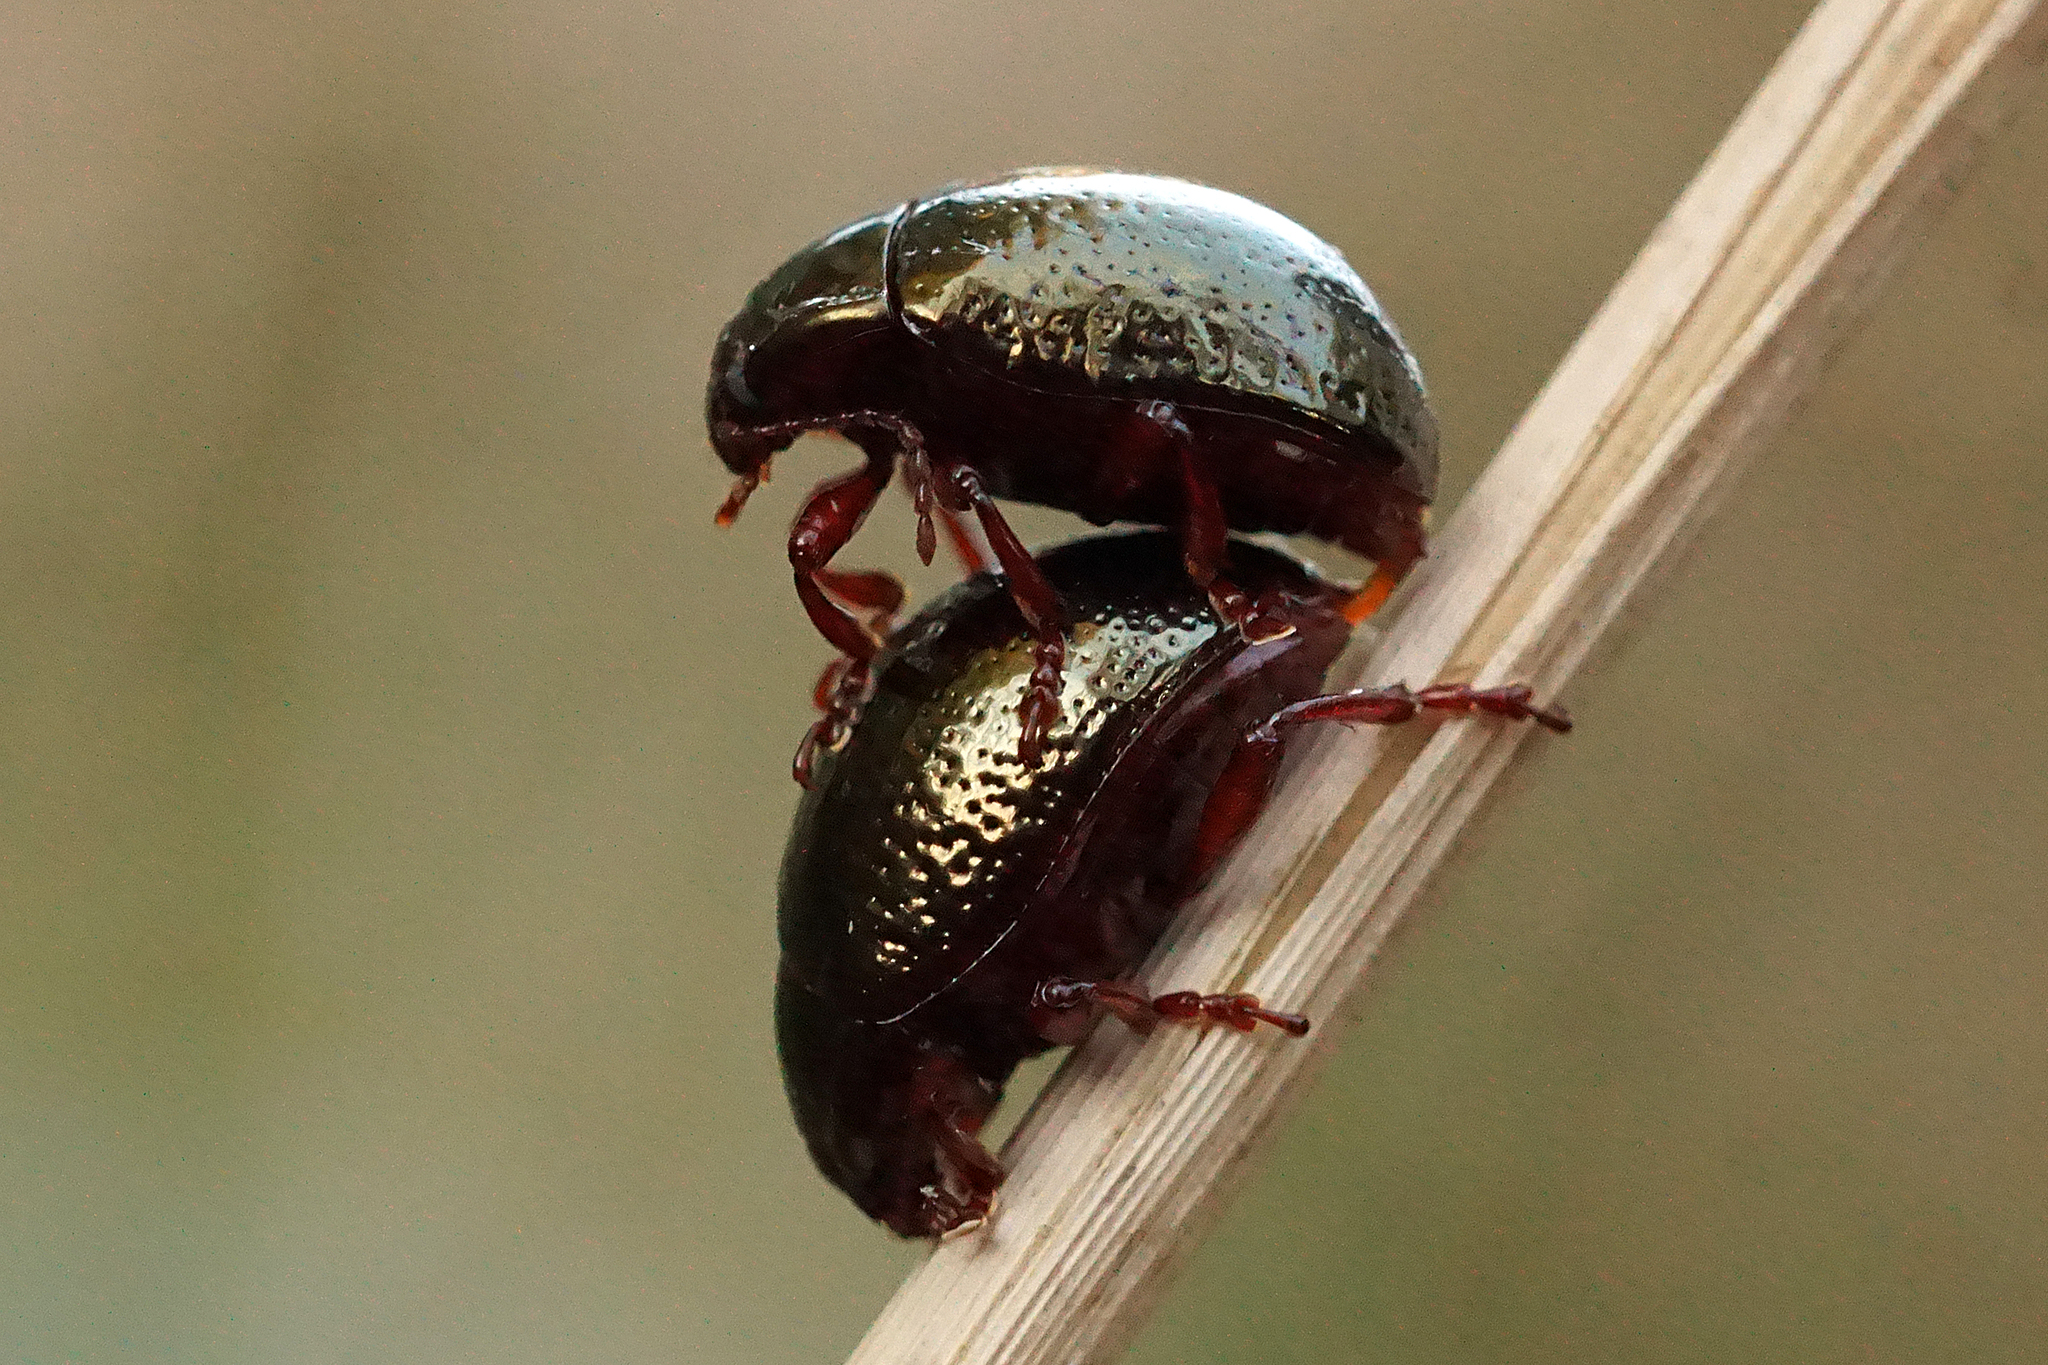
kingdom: Animalia
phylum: Arthropoda
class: Insecta
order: Coleoptera
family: Chrysomelidae
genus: Chrysolina
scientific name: Chrysolina bankii
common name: Leaf beetle
